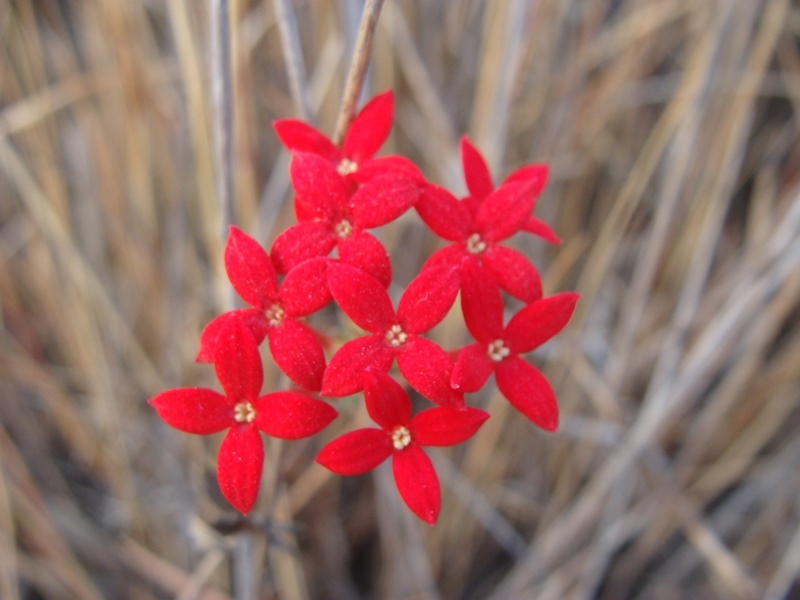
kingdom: Plantae
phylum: Tracheophyta
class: Magnoliopsida
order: Gentianales
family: Rubiaceae
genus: Bouvardia
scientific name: Bouvardia viminalis
